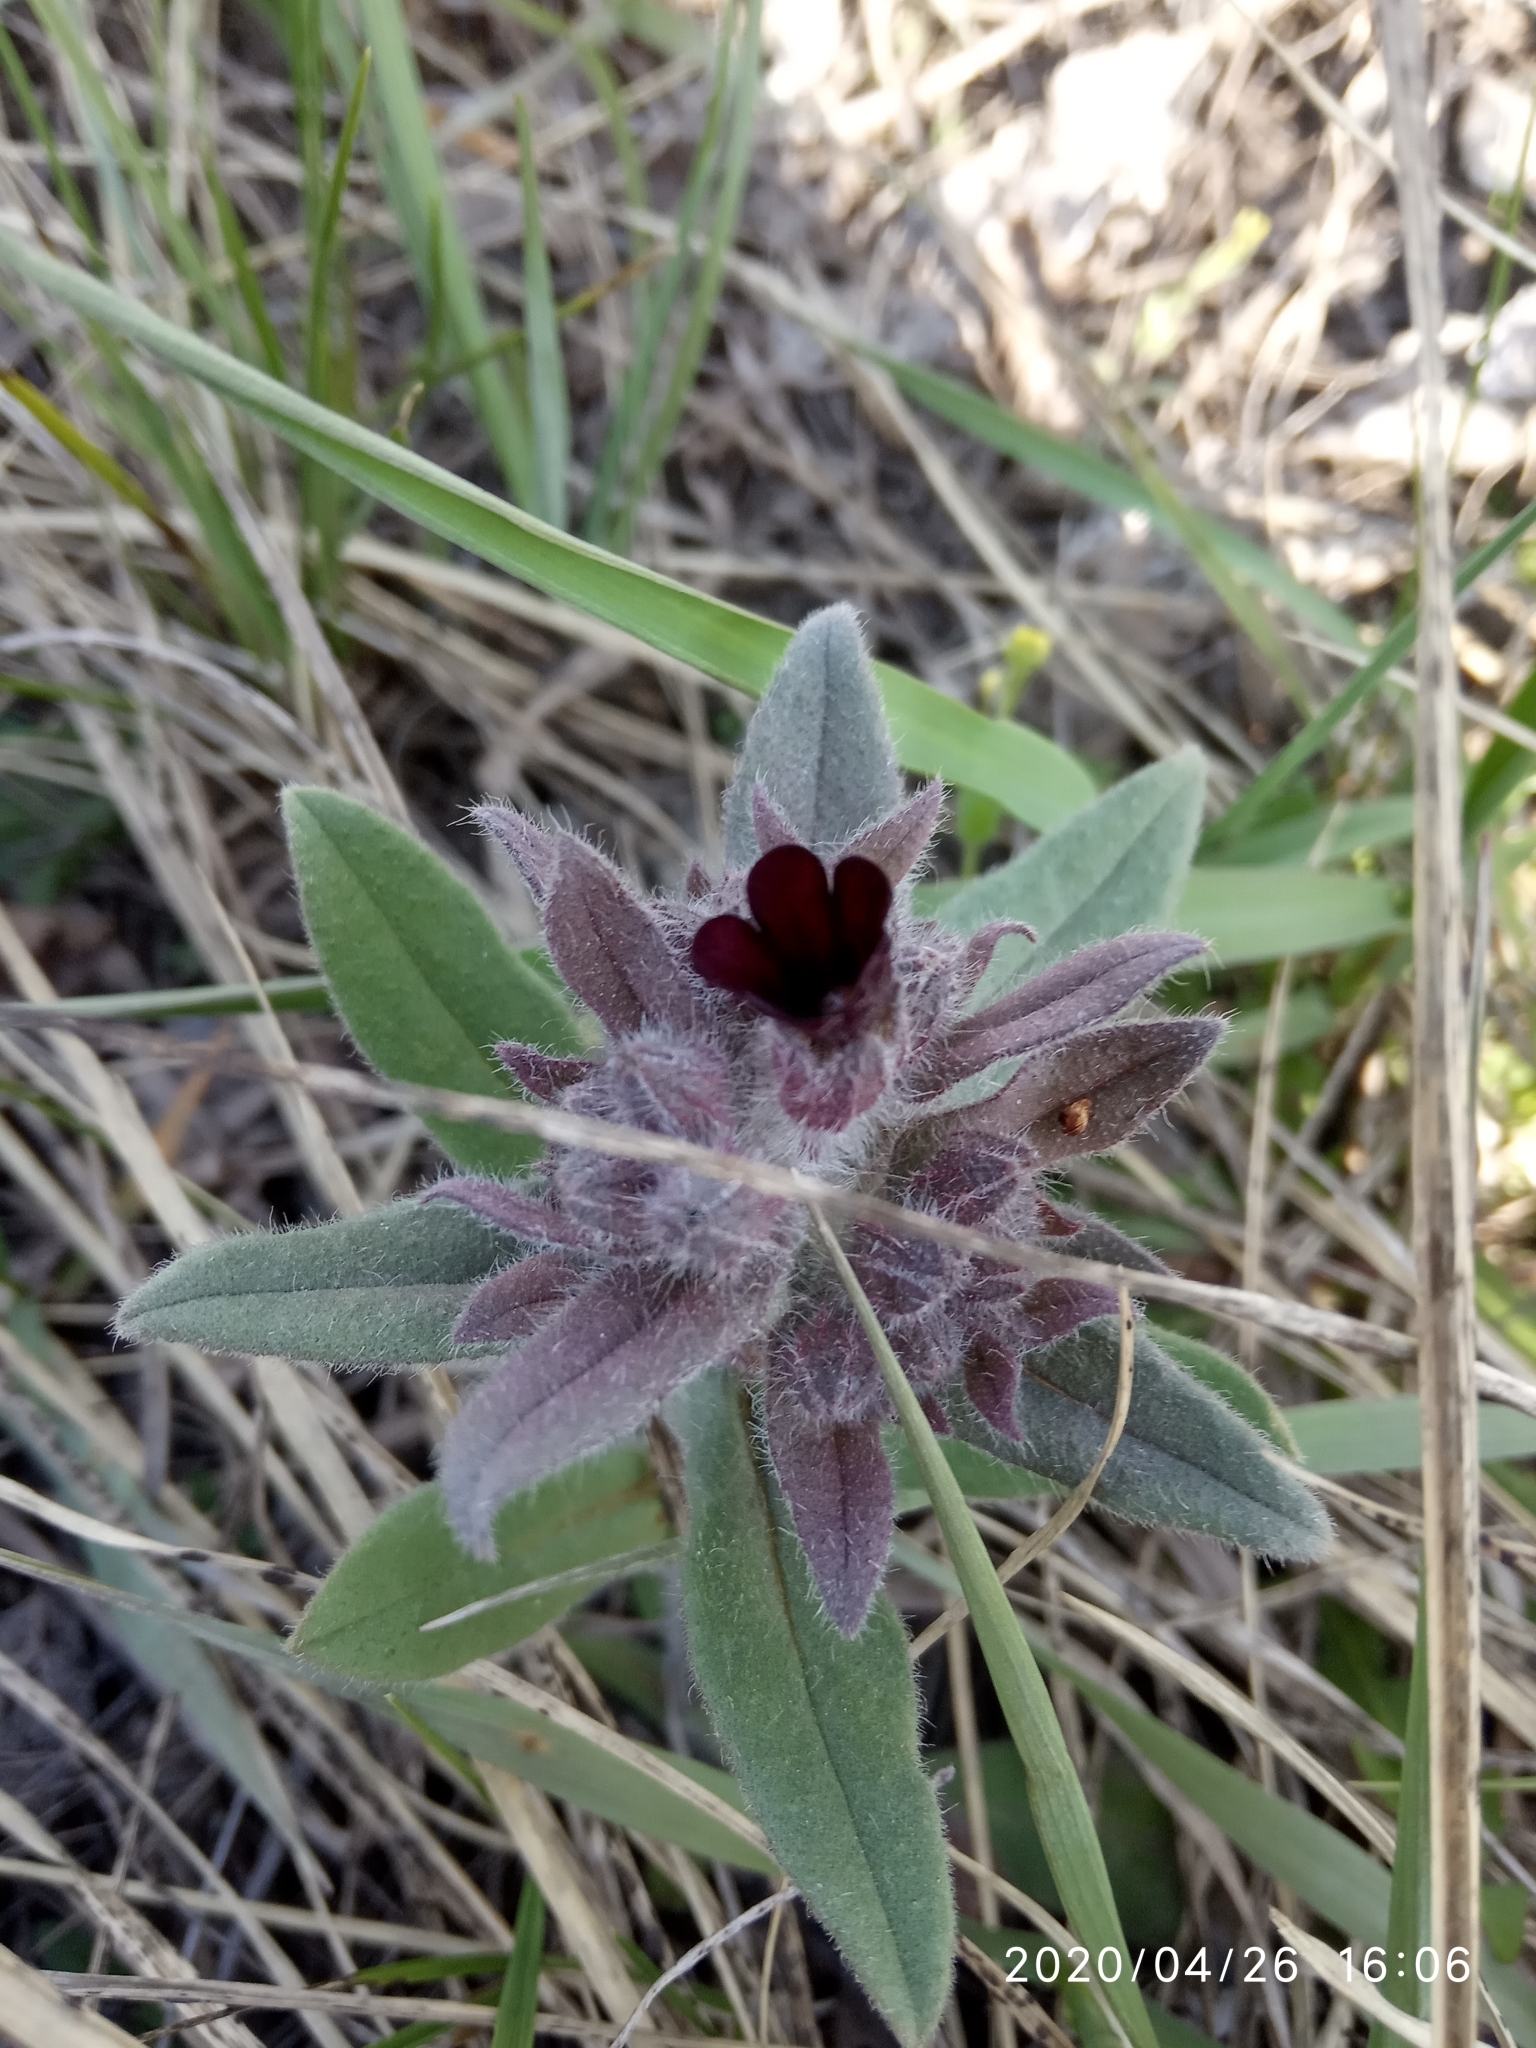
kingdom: Plantae
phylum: Tracheophyta
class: Magnoliopsida
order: Boraginales
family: Boraginaceae
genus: Nonea
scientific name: Nonea pulla
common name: Brown nonea
